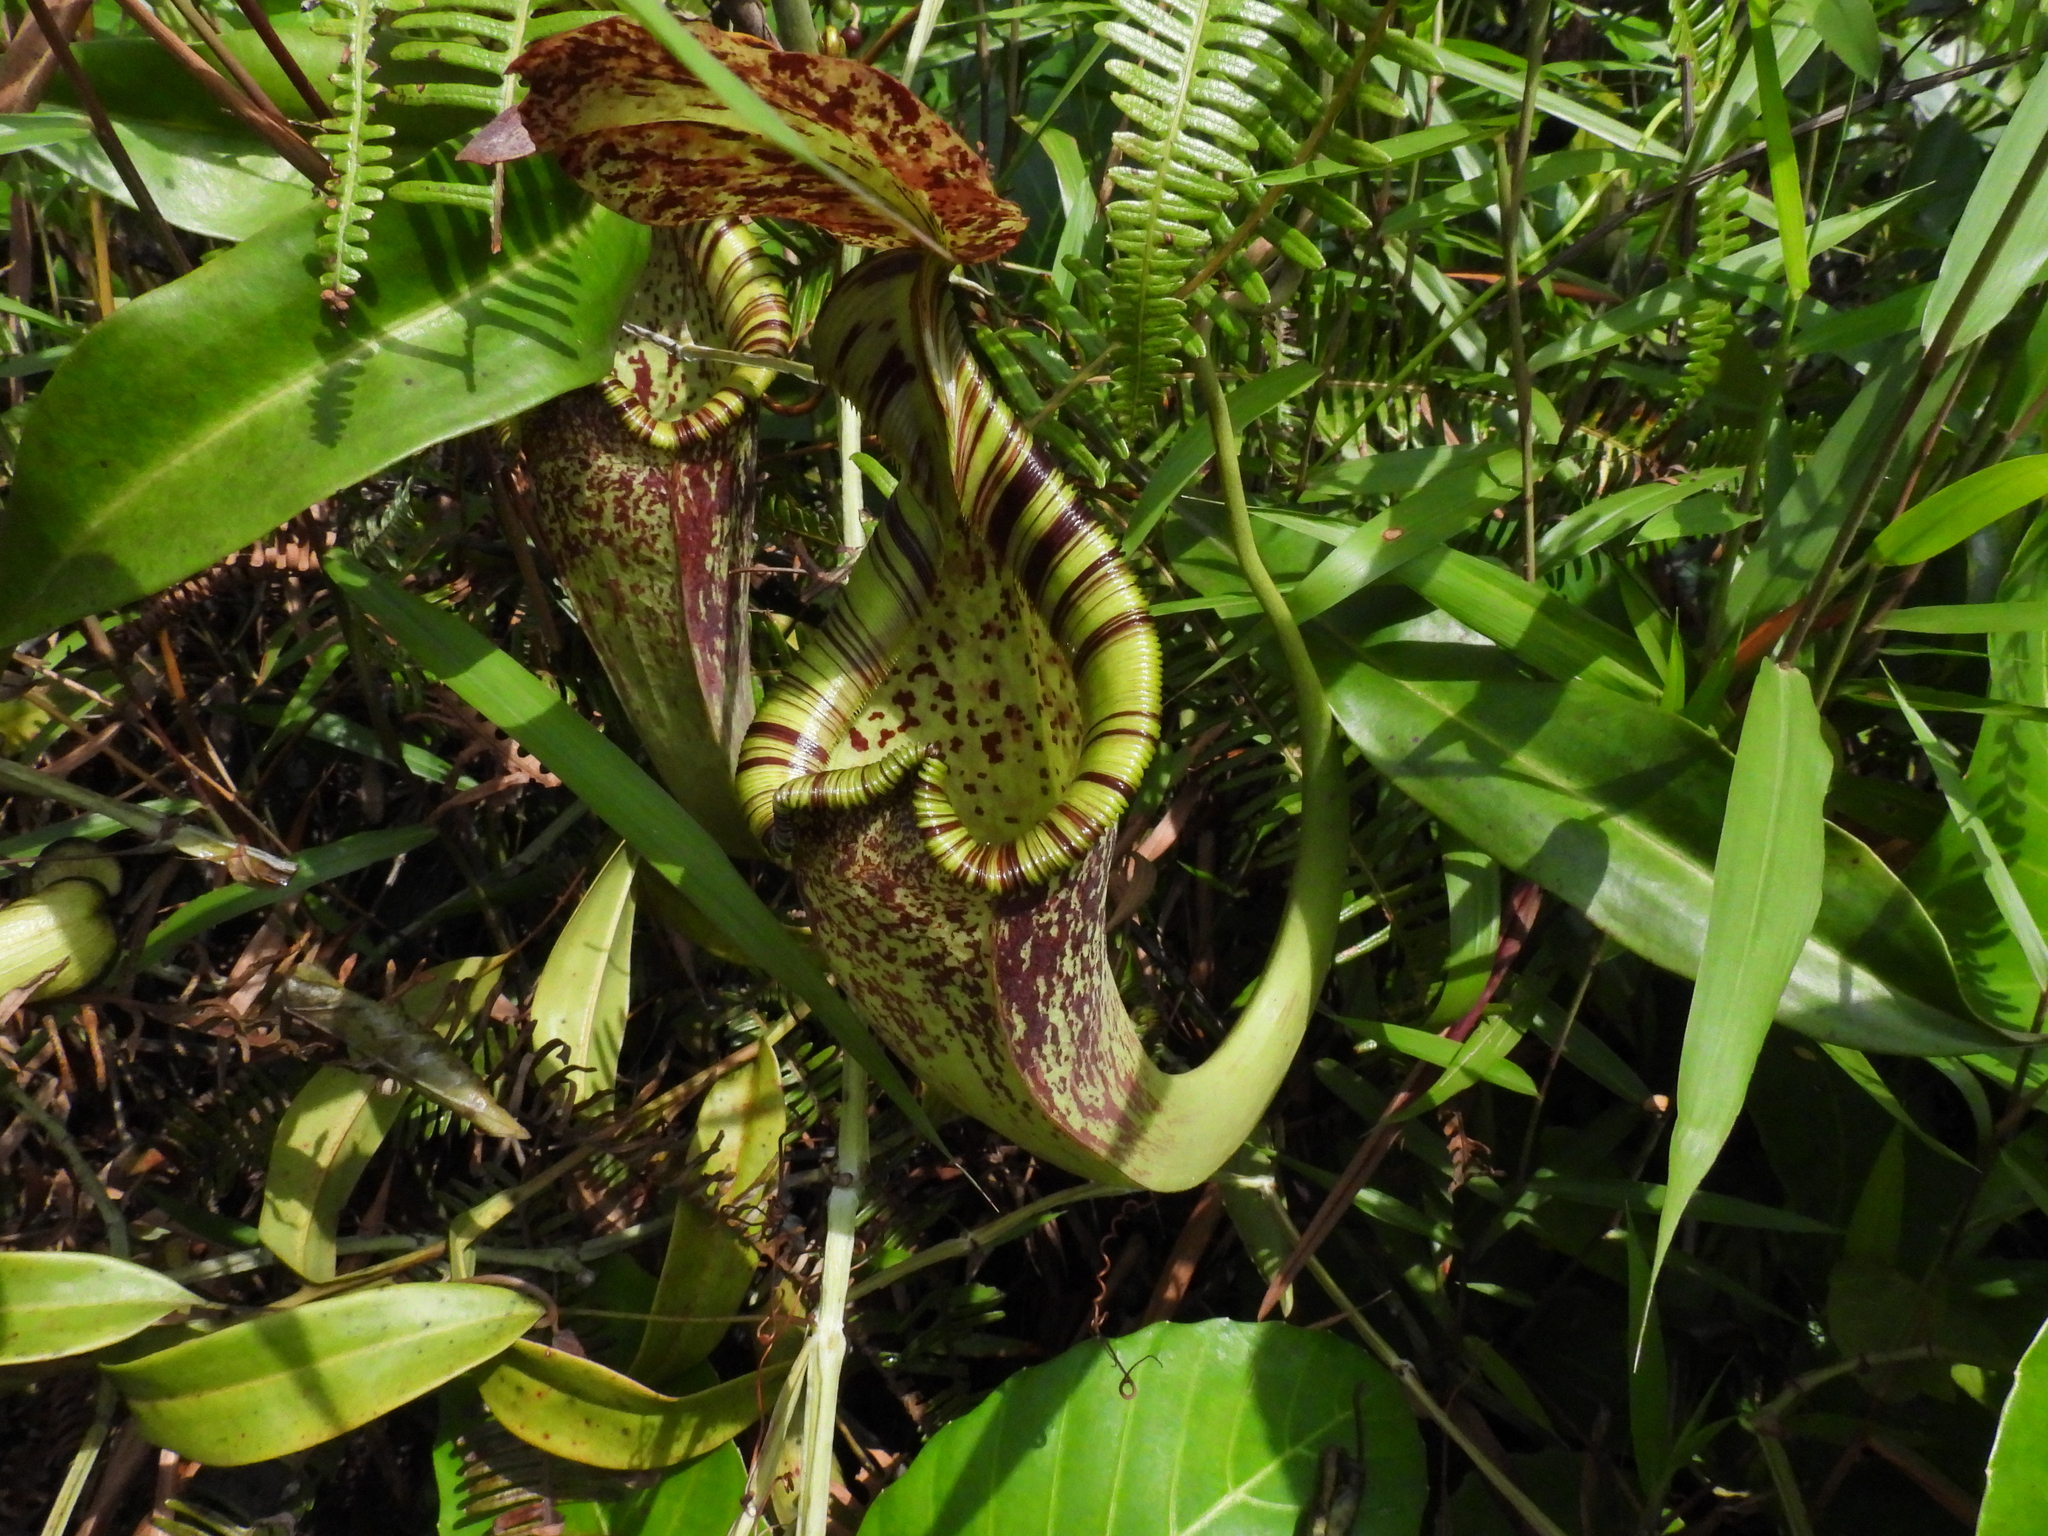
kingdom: Plantae
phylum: Tracheophyta
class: Magnoliopsida
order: Caryophyllales
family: Nepenthaceae
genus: Nepenthes
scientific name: Nepenthes rafflesiana
